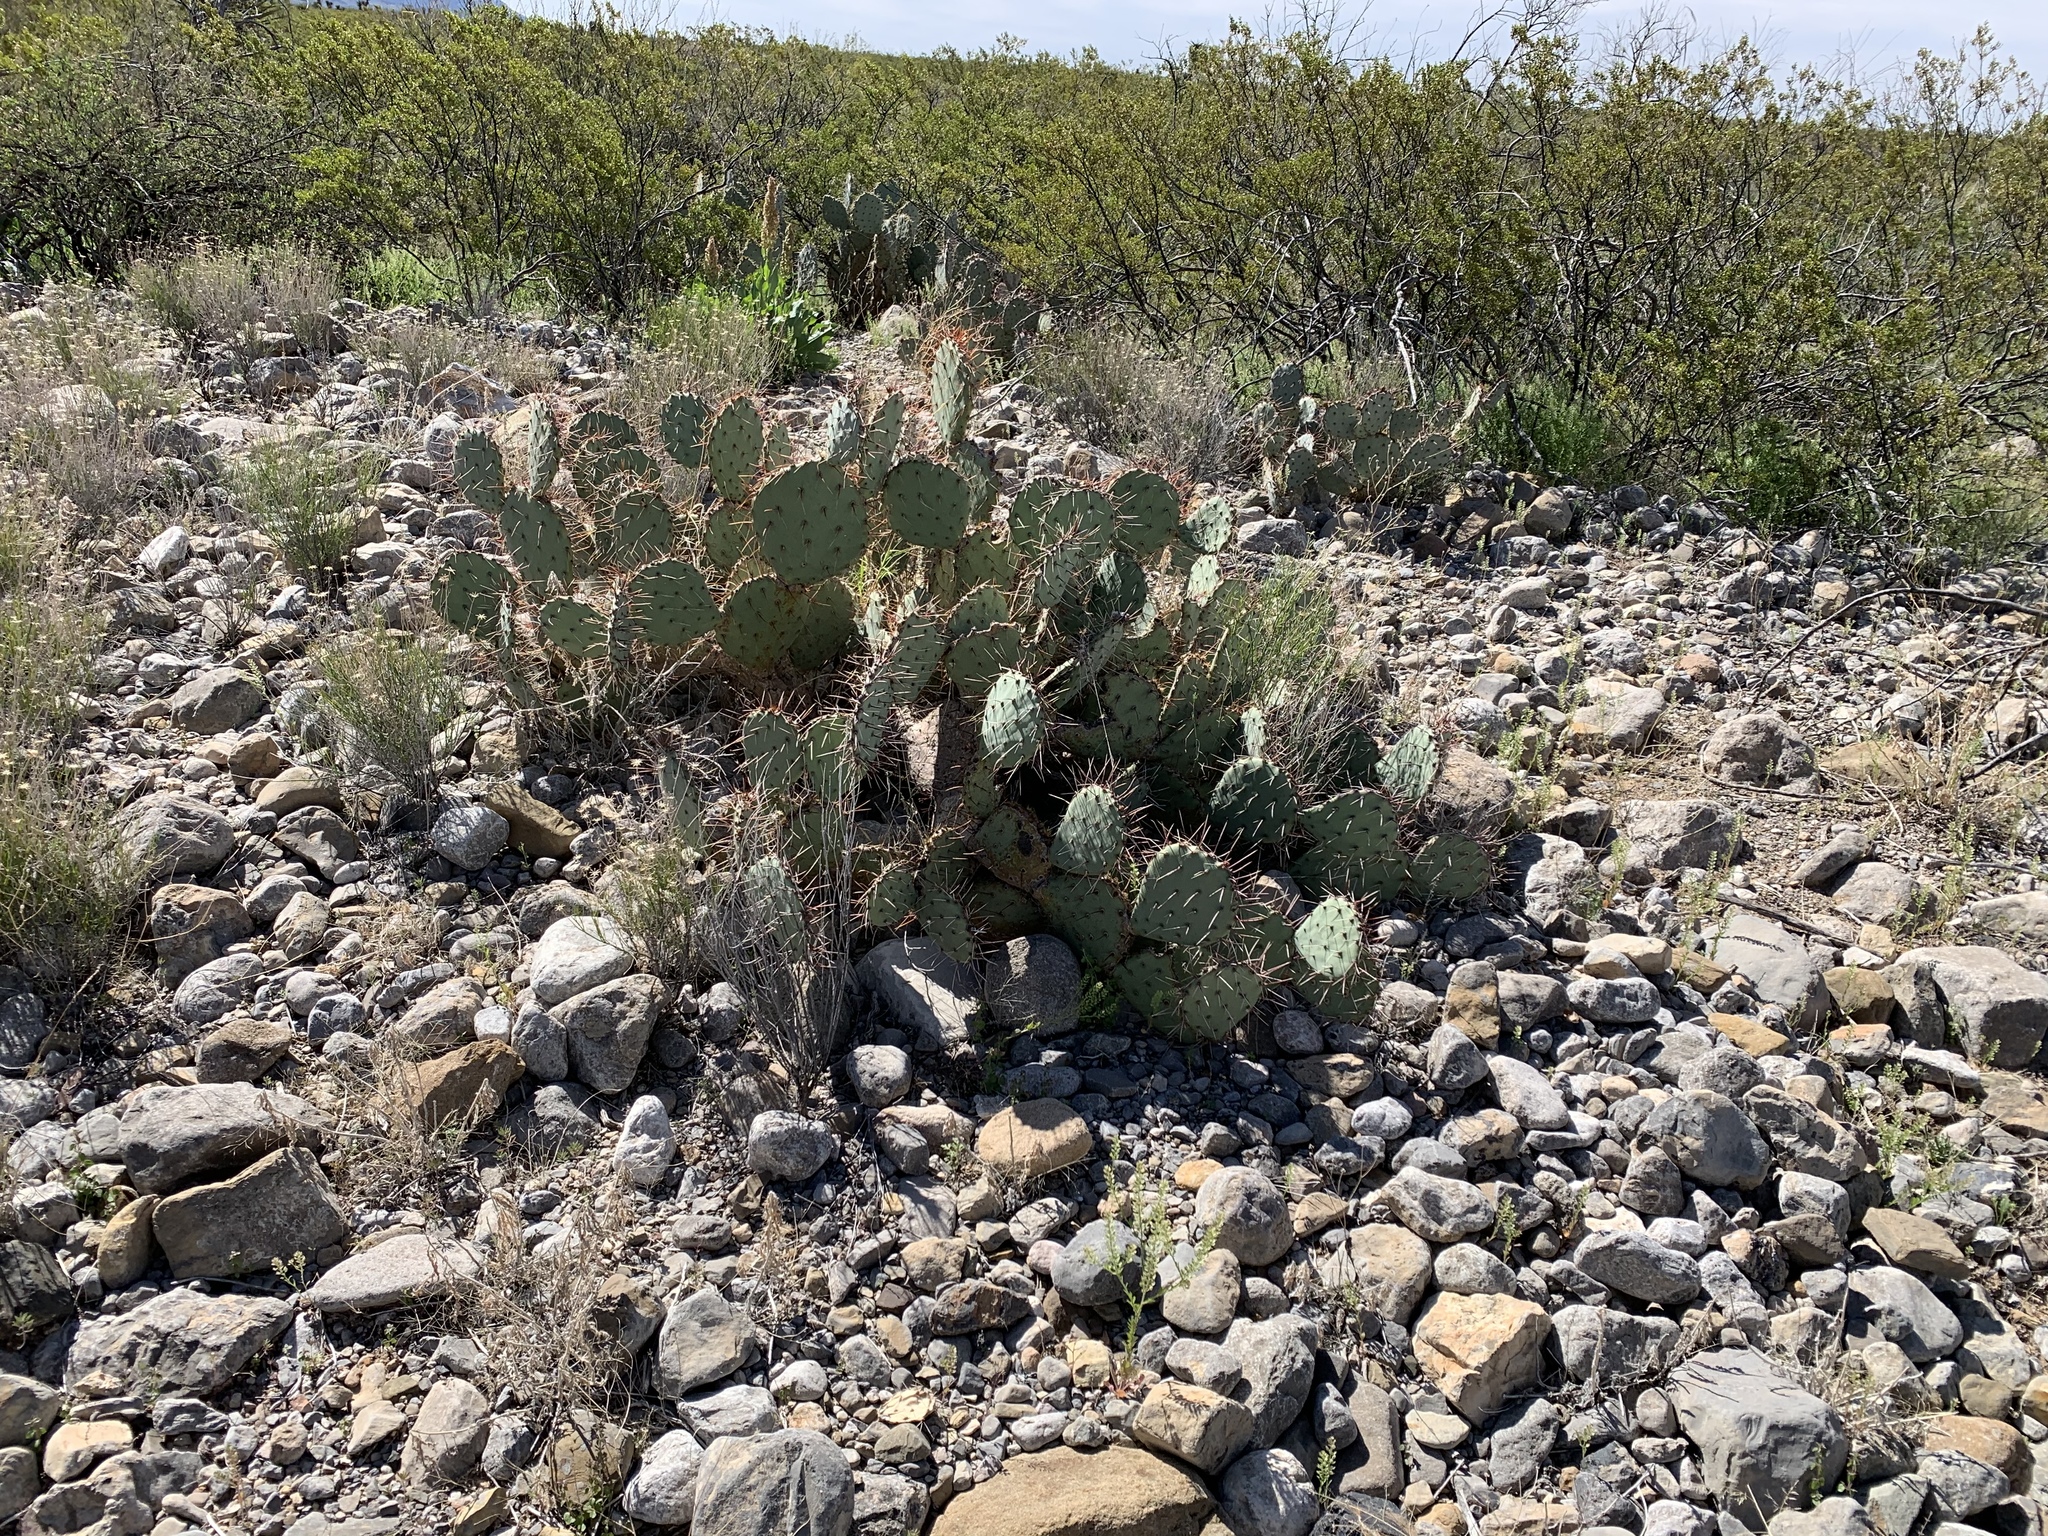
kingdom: Plantae
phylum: Tracheophyta
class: Magnoliopsida
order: Caryophyllales
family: Cactaceae
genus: Opuntia
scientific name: Opuntia phaeacantha
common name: New mexico prickly-pear
